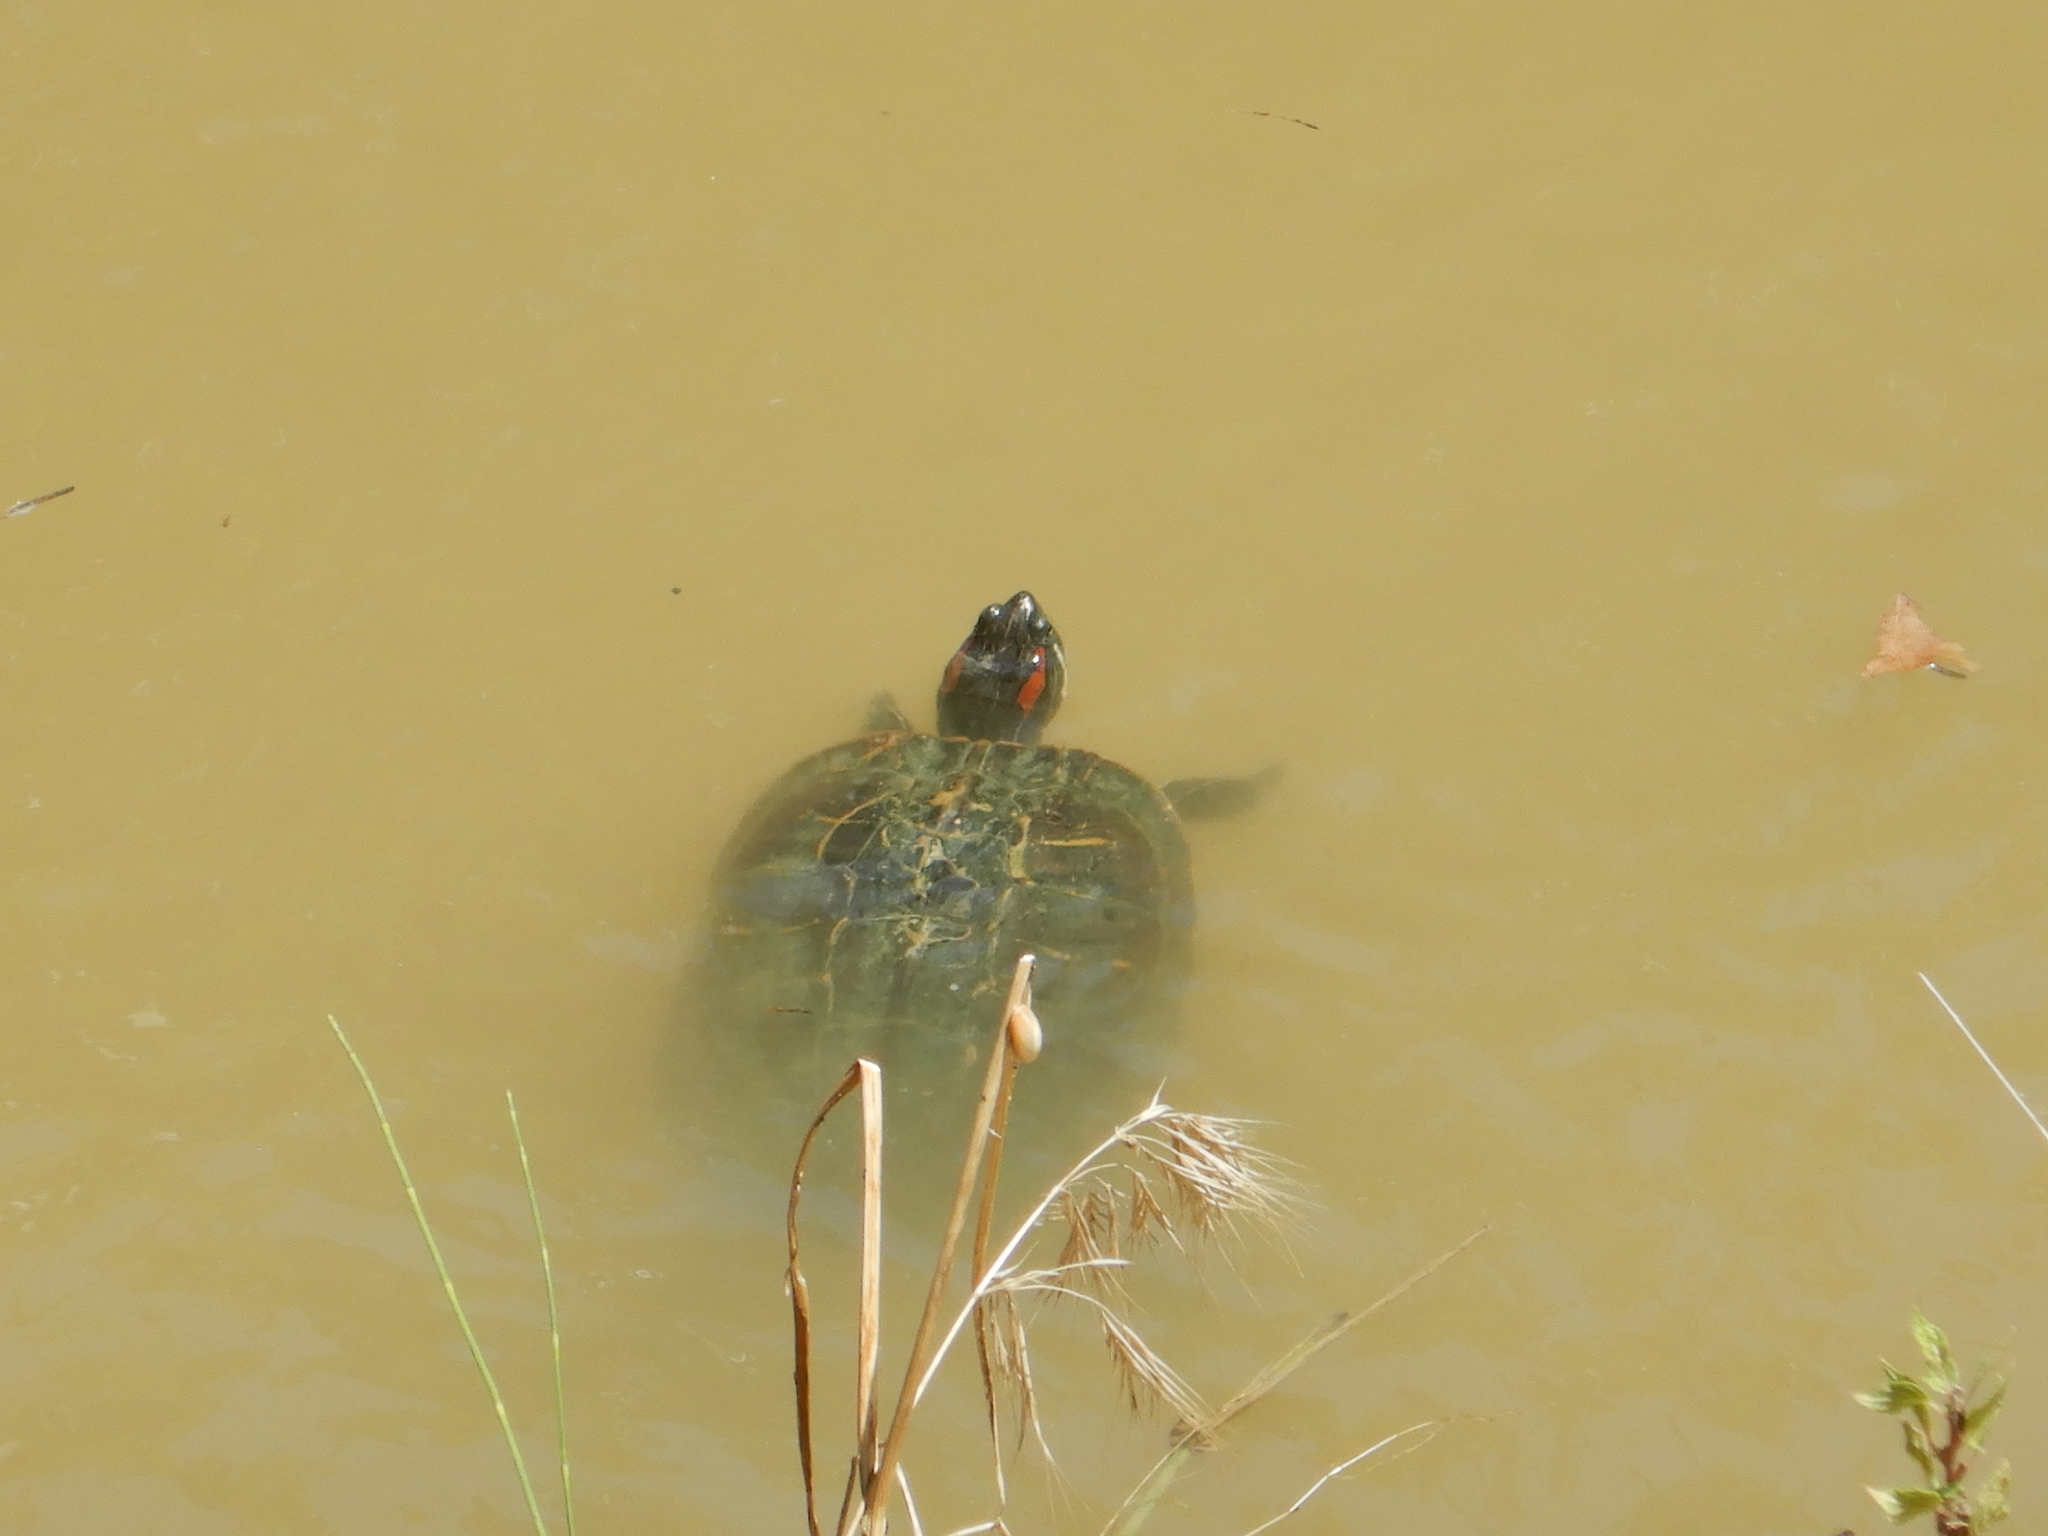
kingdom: Animalia
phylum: Chordata
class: Testudines
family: Emydidae
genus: Trachemys
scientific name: Trachemys scripta
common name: Slider
